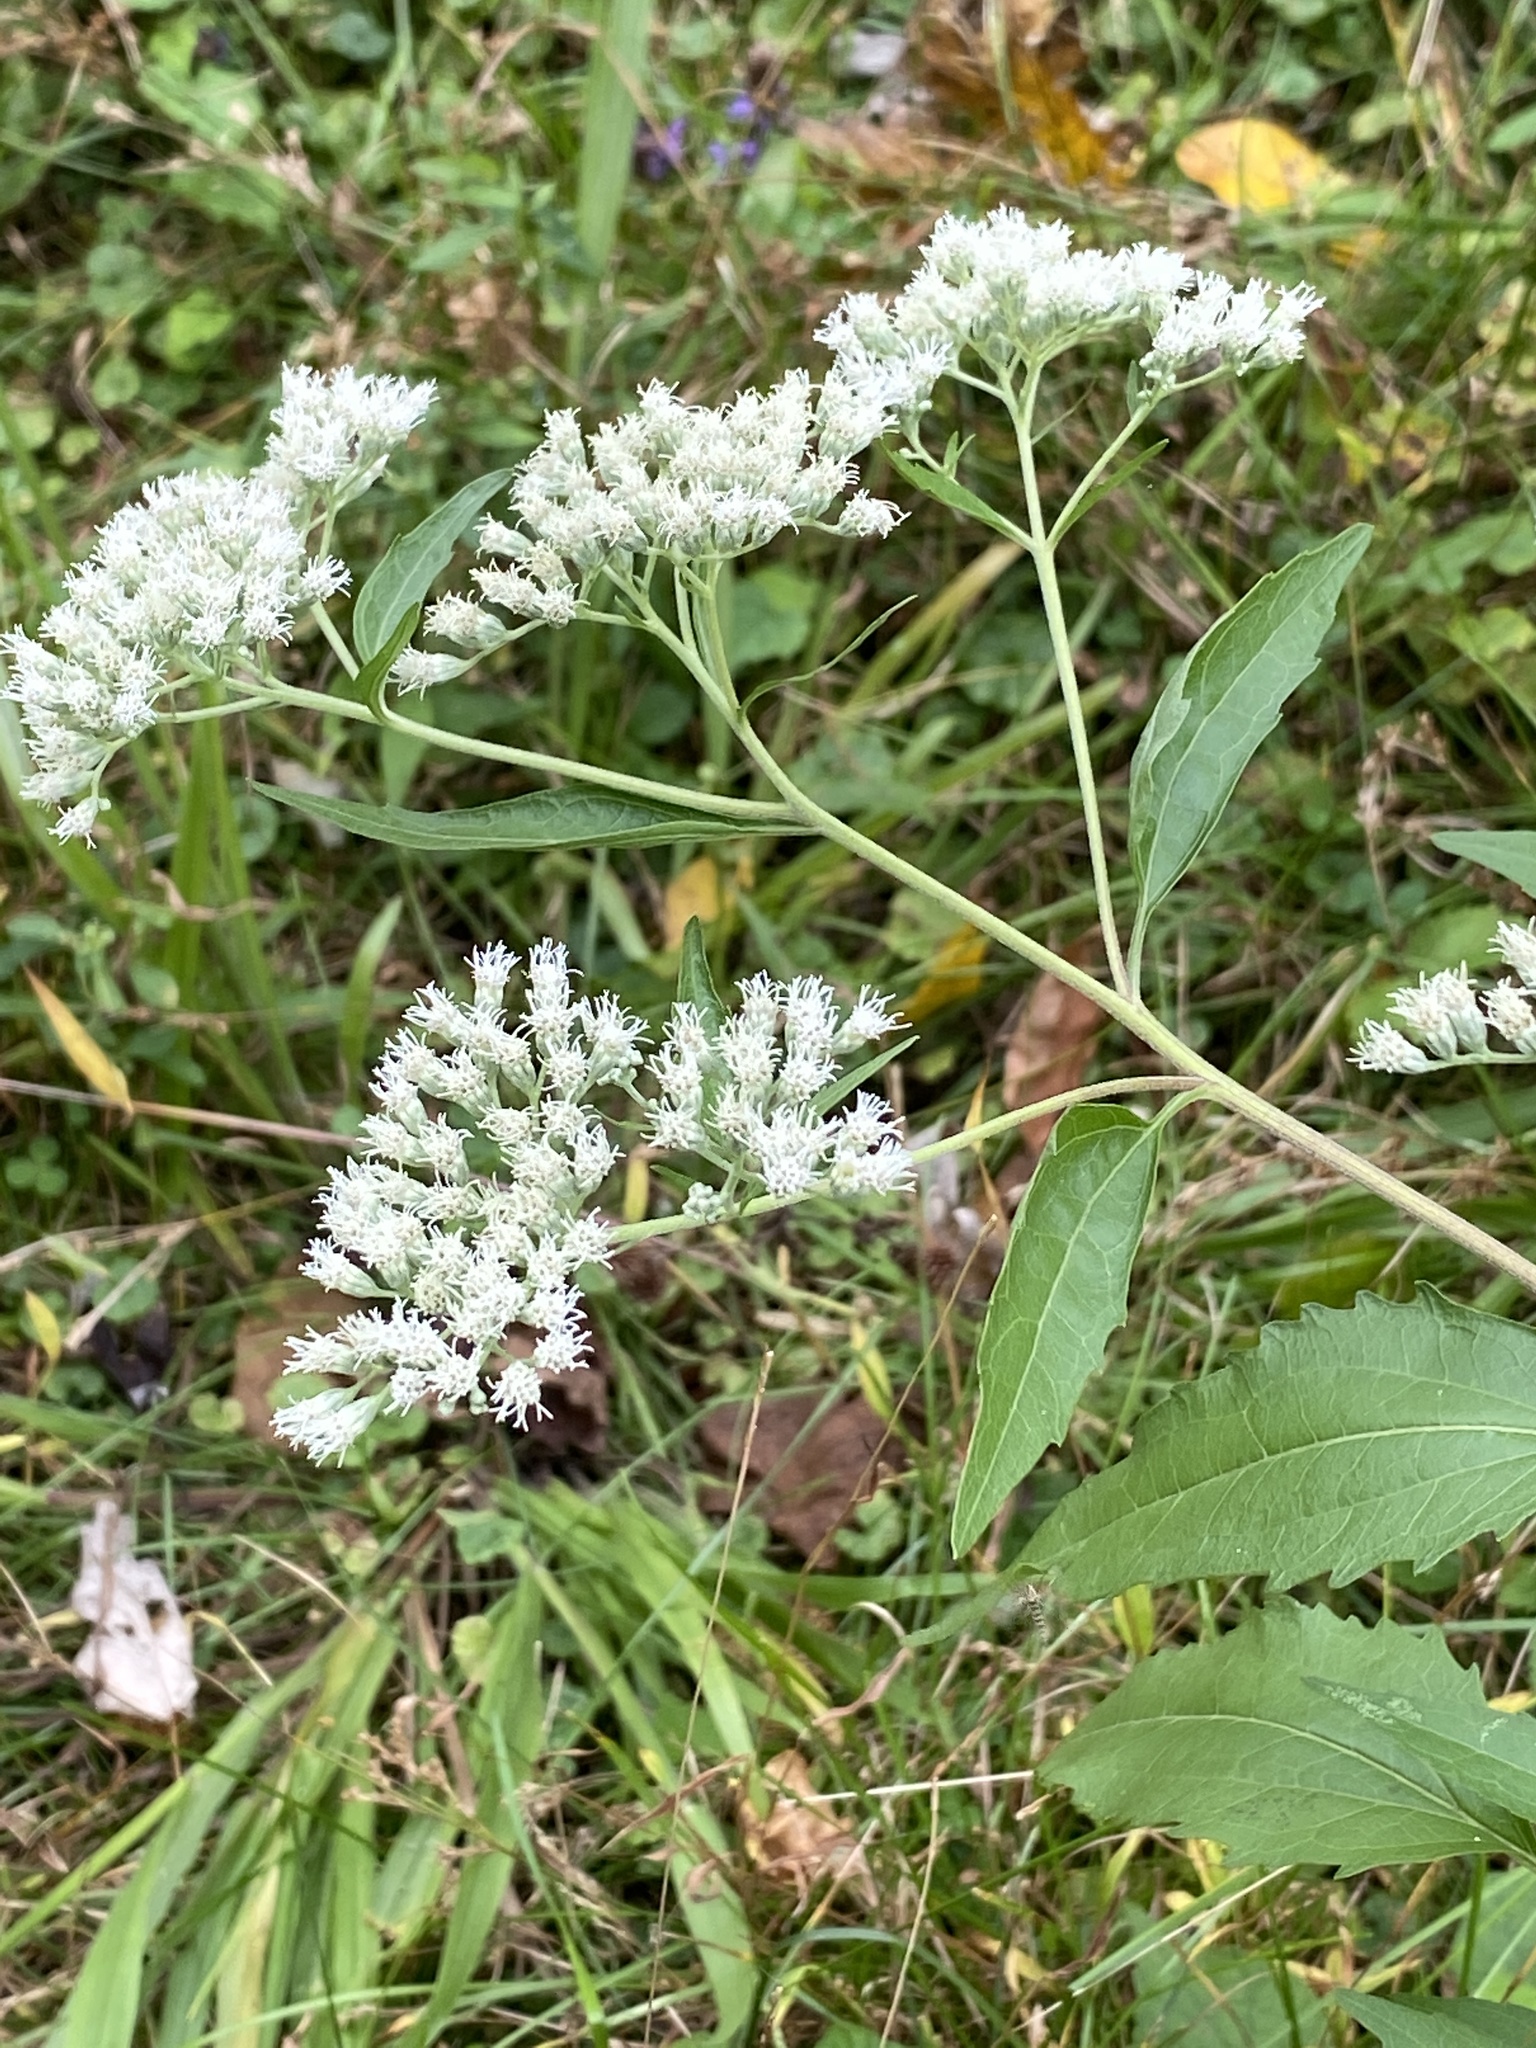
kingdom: Plantae
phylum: Tracheophyta
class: Magnoliopsida
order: Asterales
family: Asteraceae
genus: Eupatorium
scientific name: Eupatorium serotinum
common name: Late boneset
